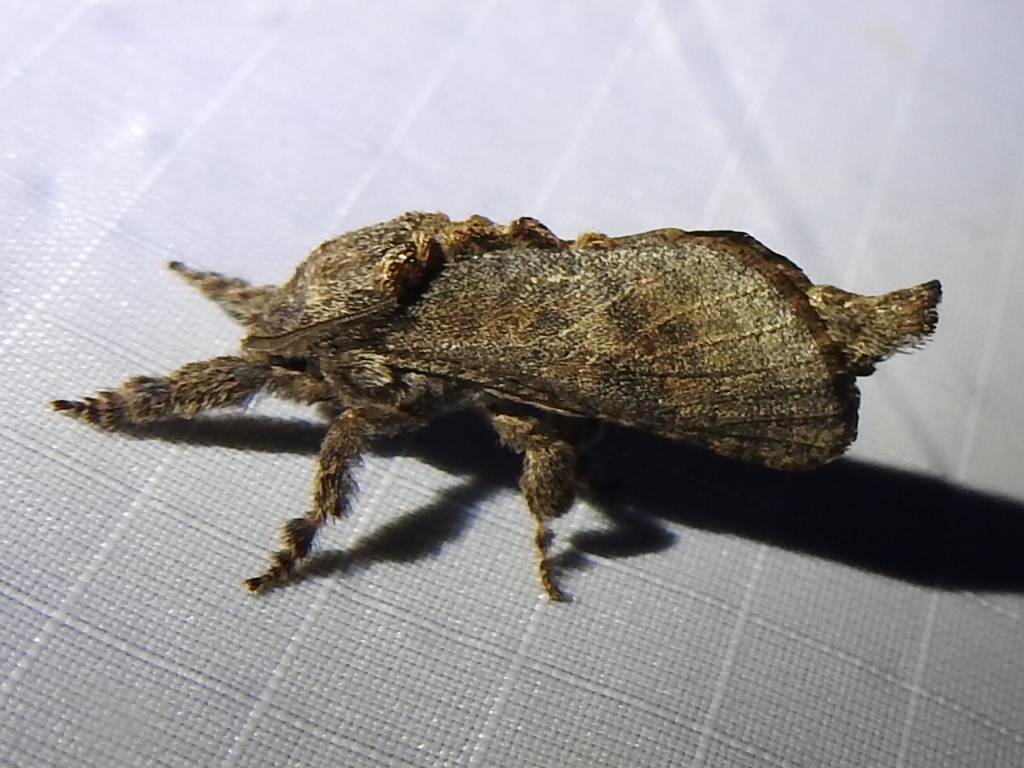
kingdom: Animalia
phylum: Arthropoda
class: Insecta
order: Lepidoptera
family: Cossidae
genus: Givira
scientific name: Givira arbeloides
